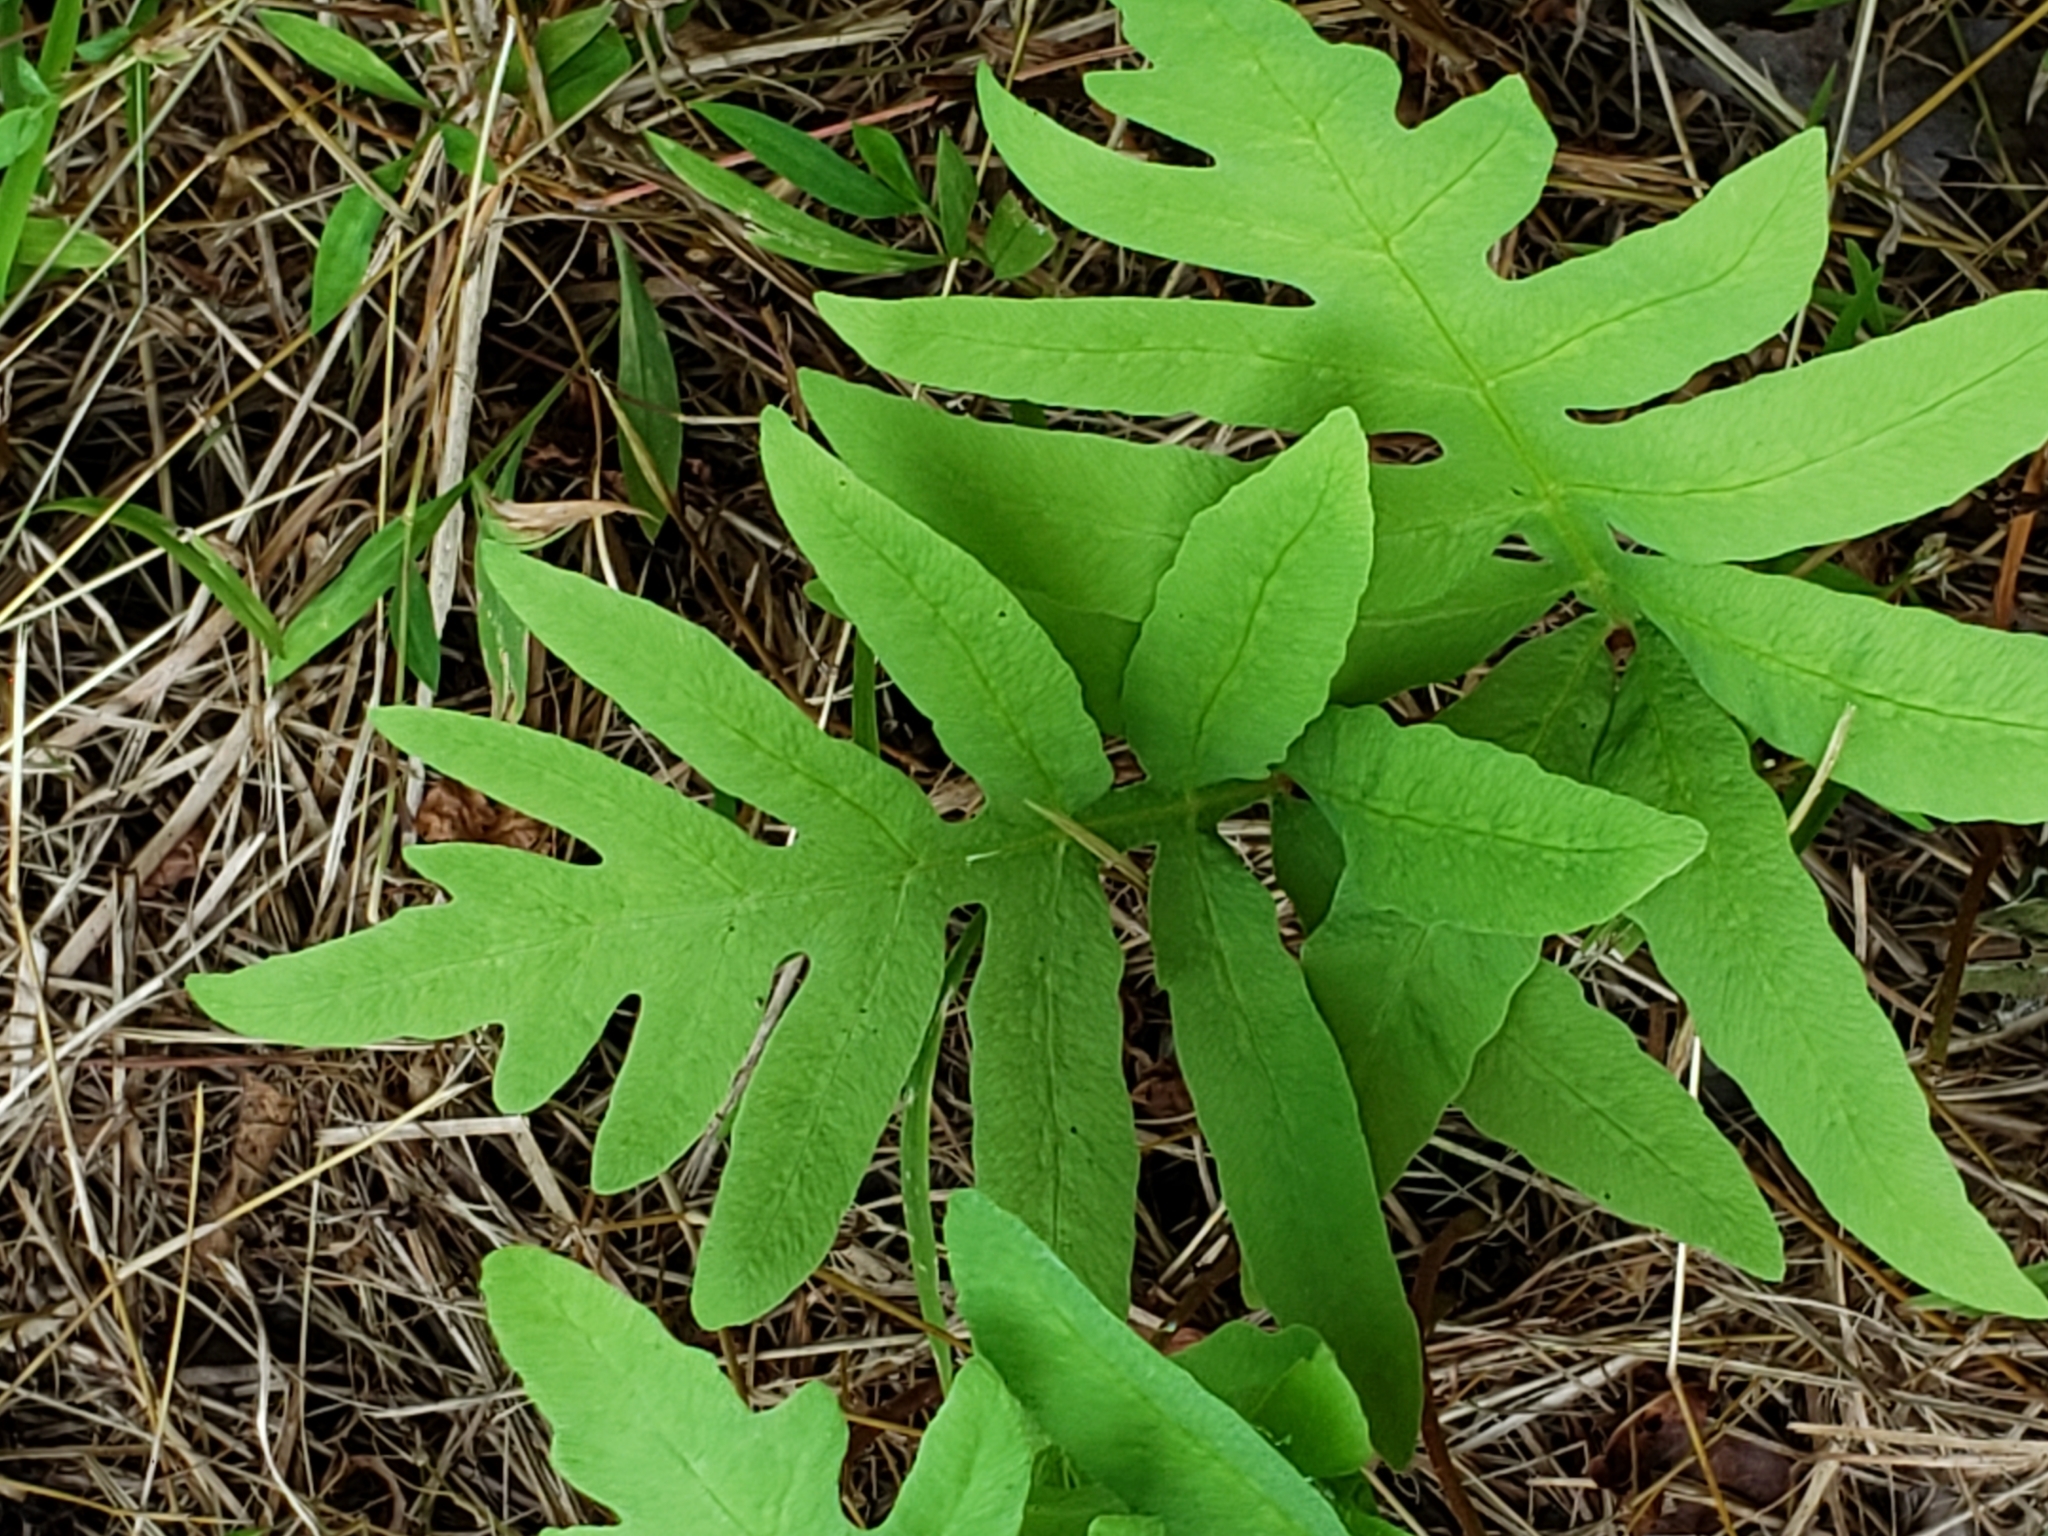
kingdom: Plantae
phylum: Tracheophyta
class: Polypodiopsida
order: Polypodiales
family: Onocleaceae
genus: Onoclea
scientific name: Onoclea sensibilis
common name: Sensitive fern
